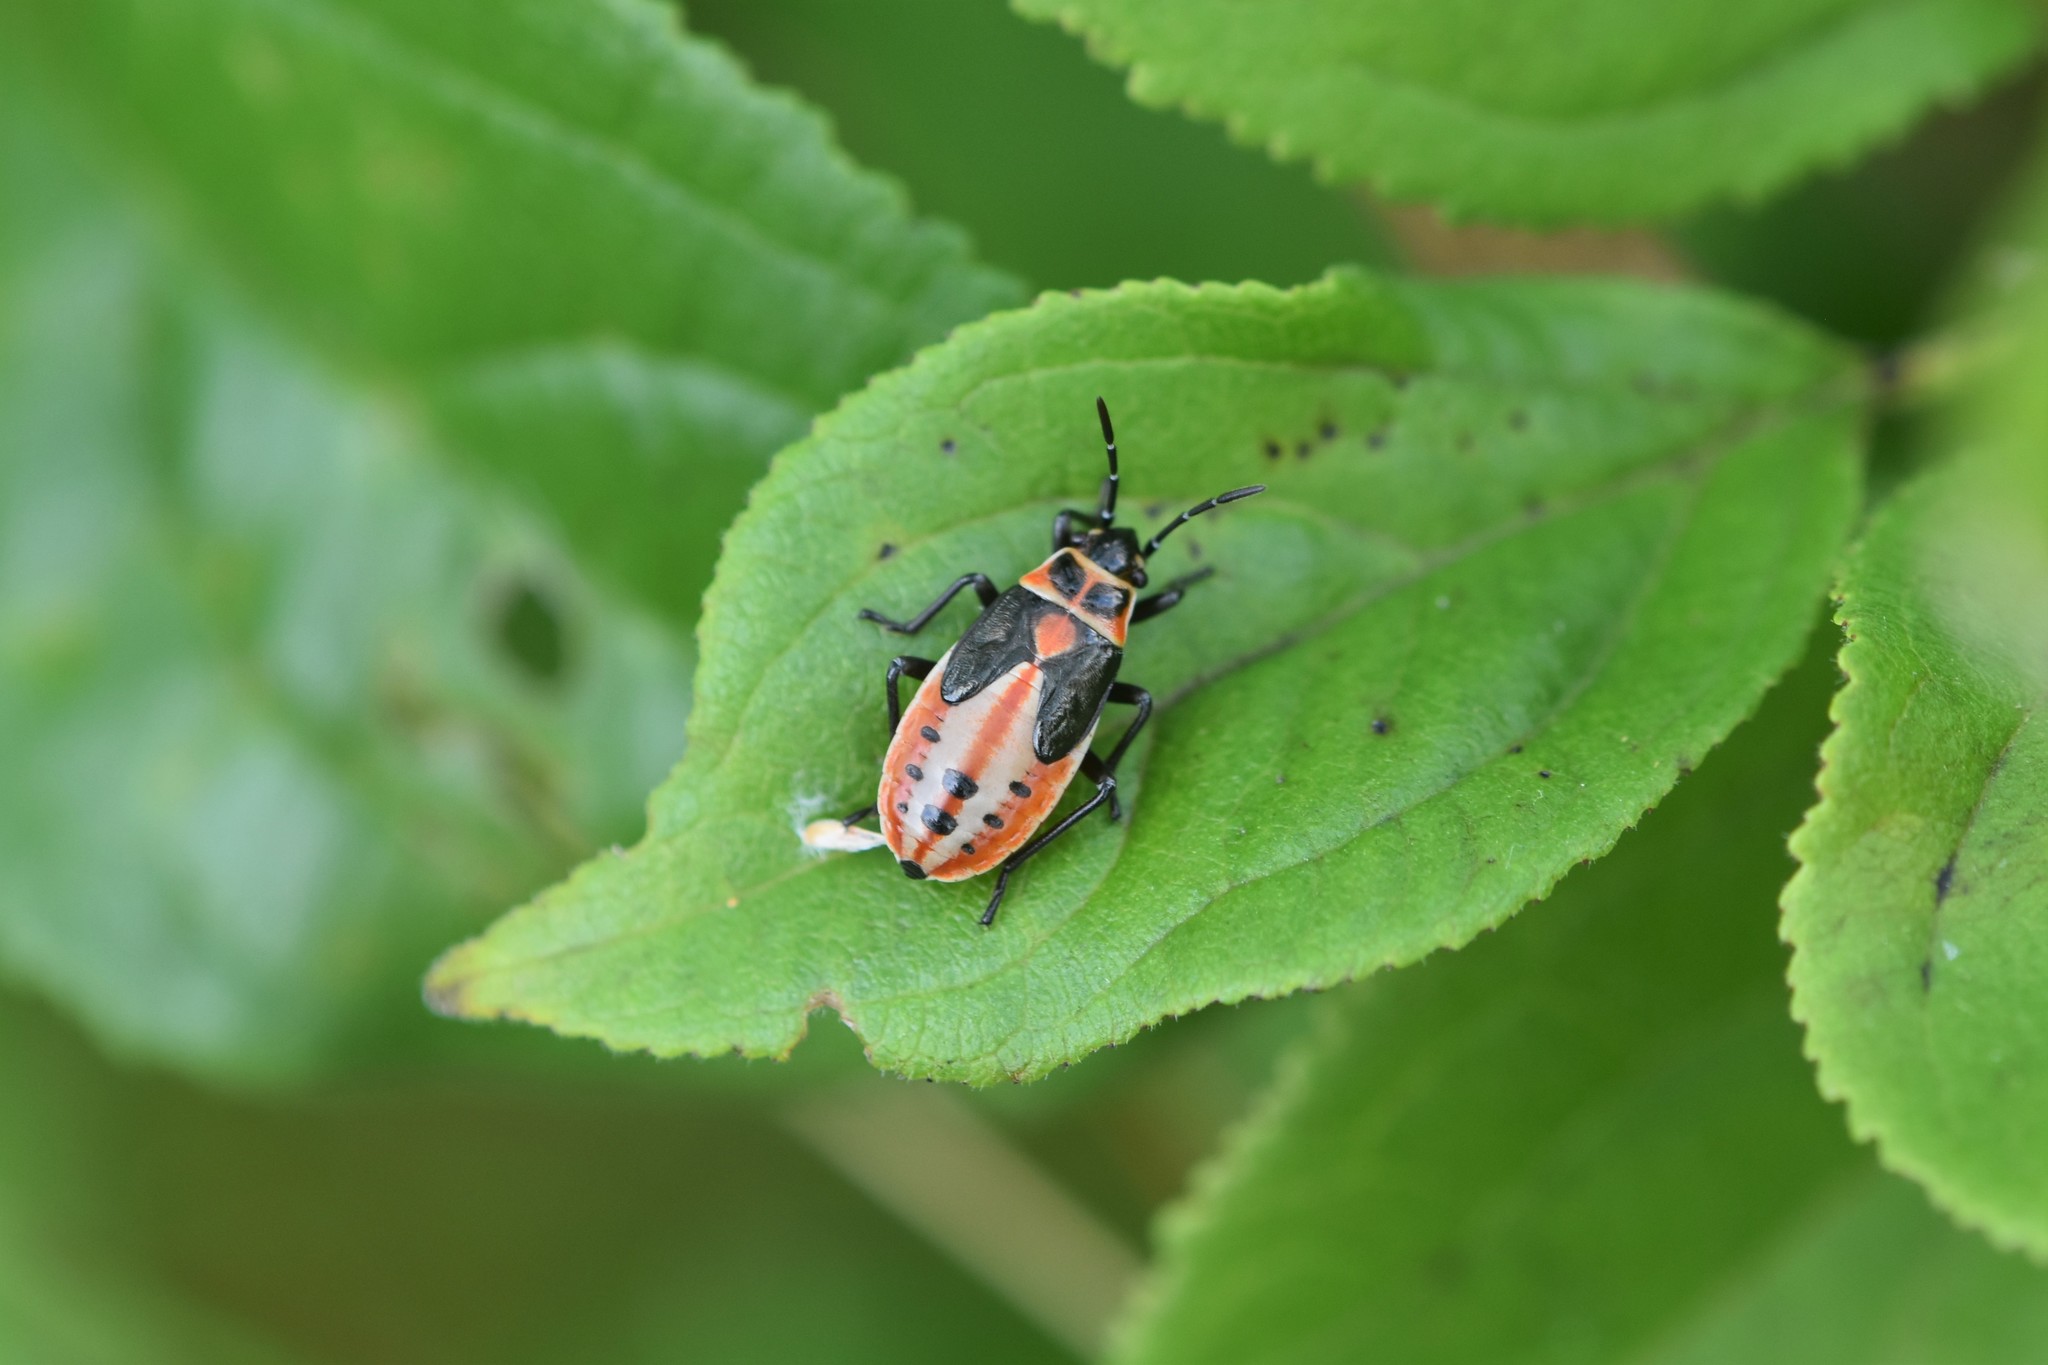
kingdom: Animalia
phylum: Arthropoda
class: Insecta
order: Hemiptera
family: Lygaeidae
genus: Lygaeus
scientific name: Lygaeus kalmii
